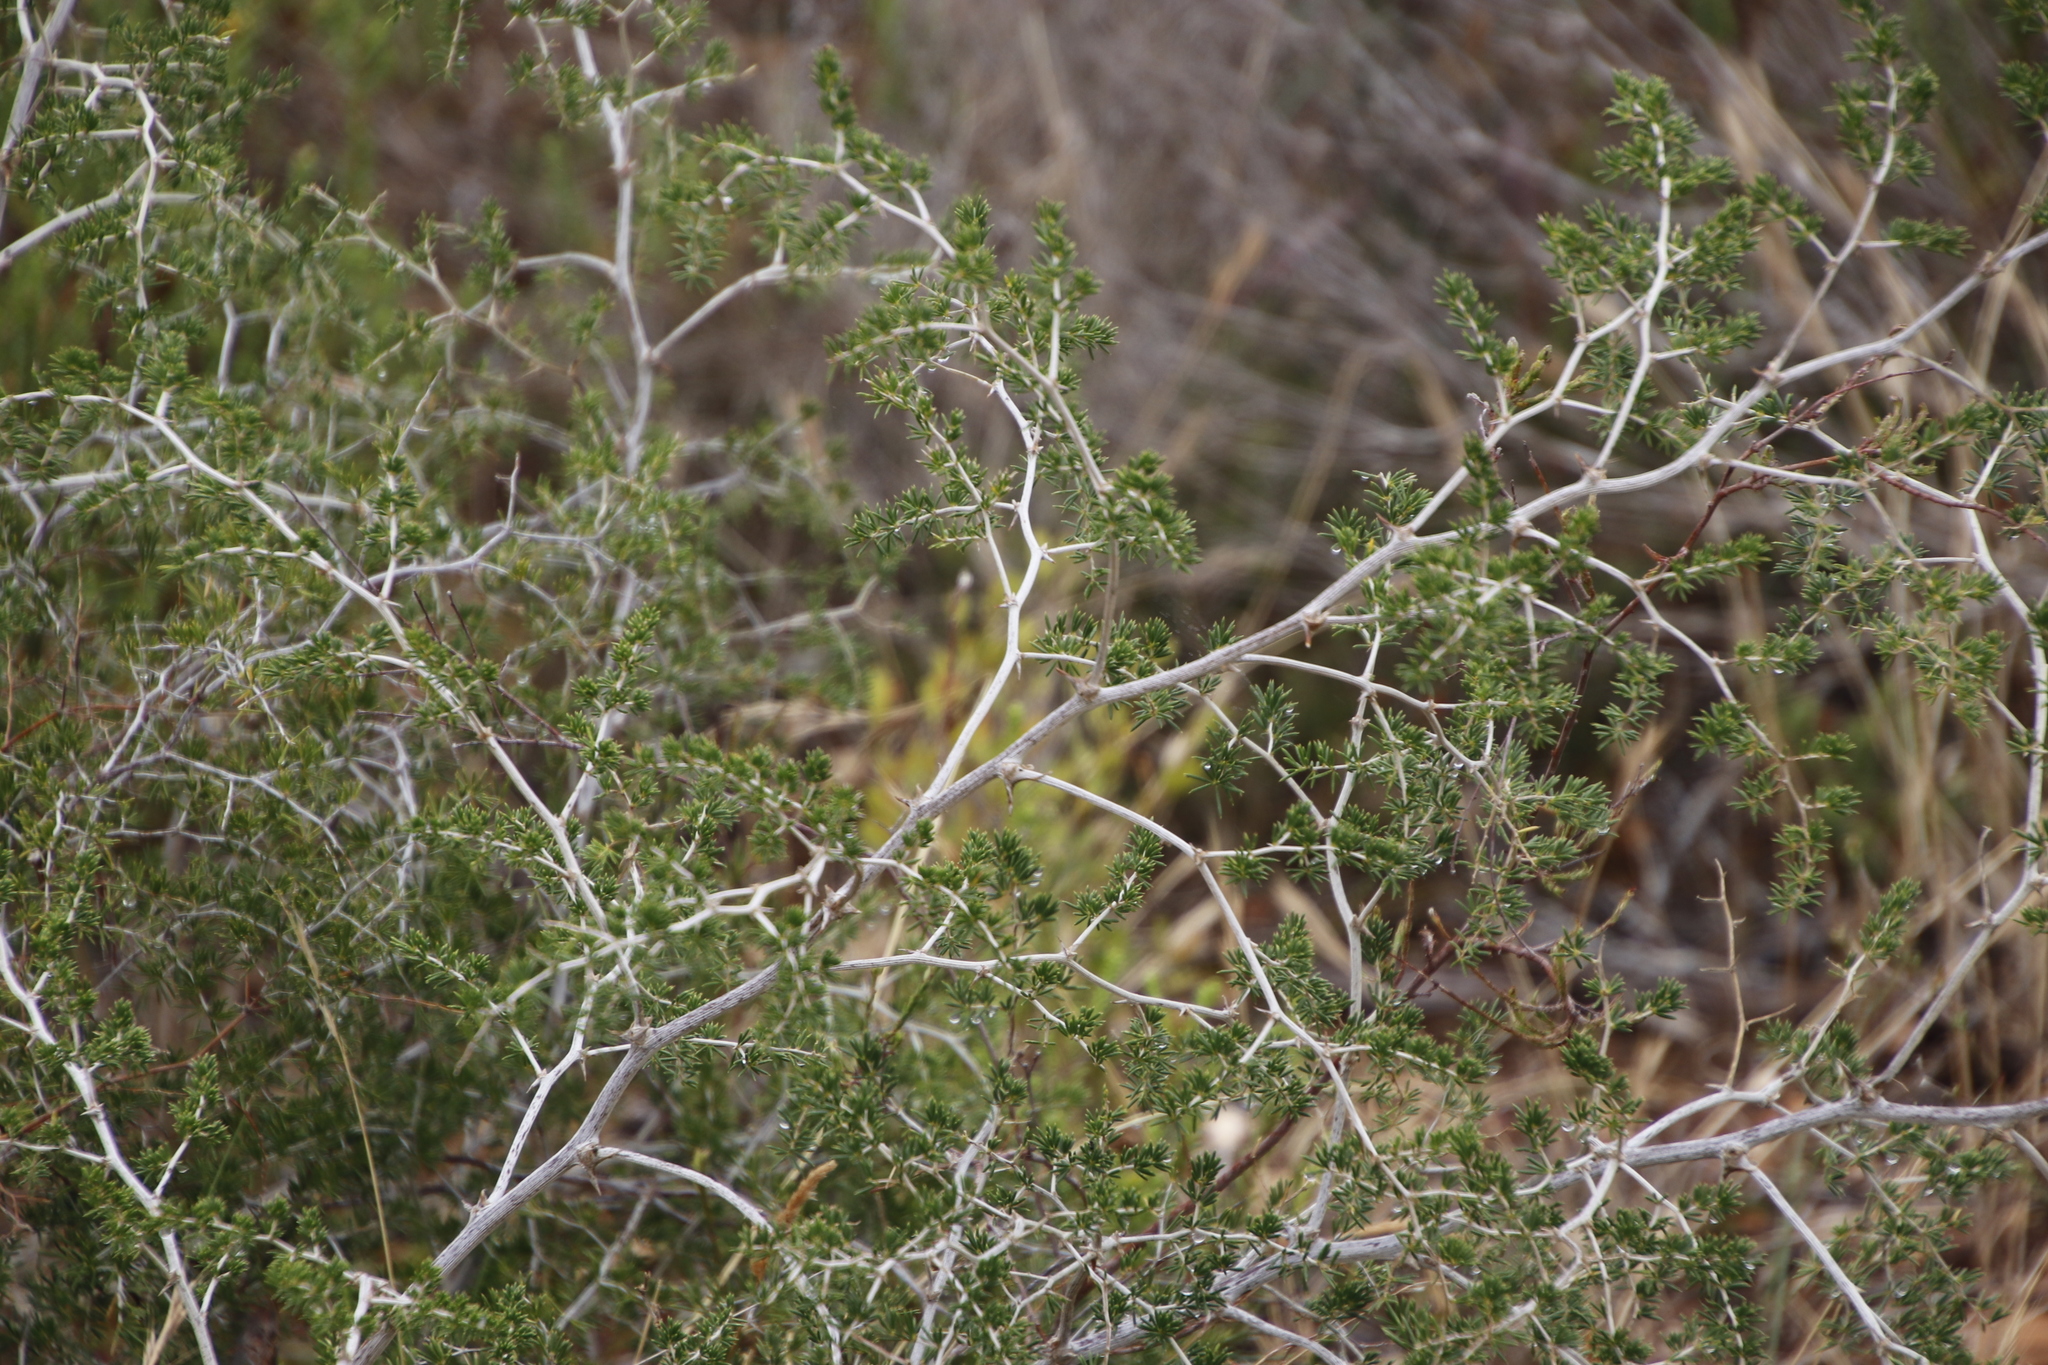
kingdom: Plantae
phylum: Tracheophyta
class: Liliopsida
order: Asparagales
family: Asparagaceae
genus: Asparagus
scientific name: Asparagus lignosus
